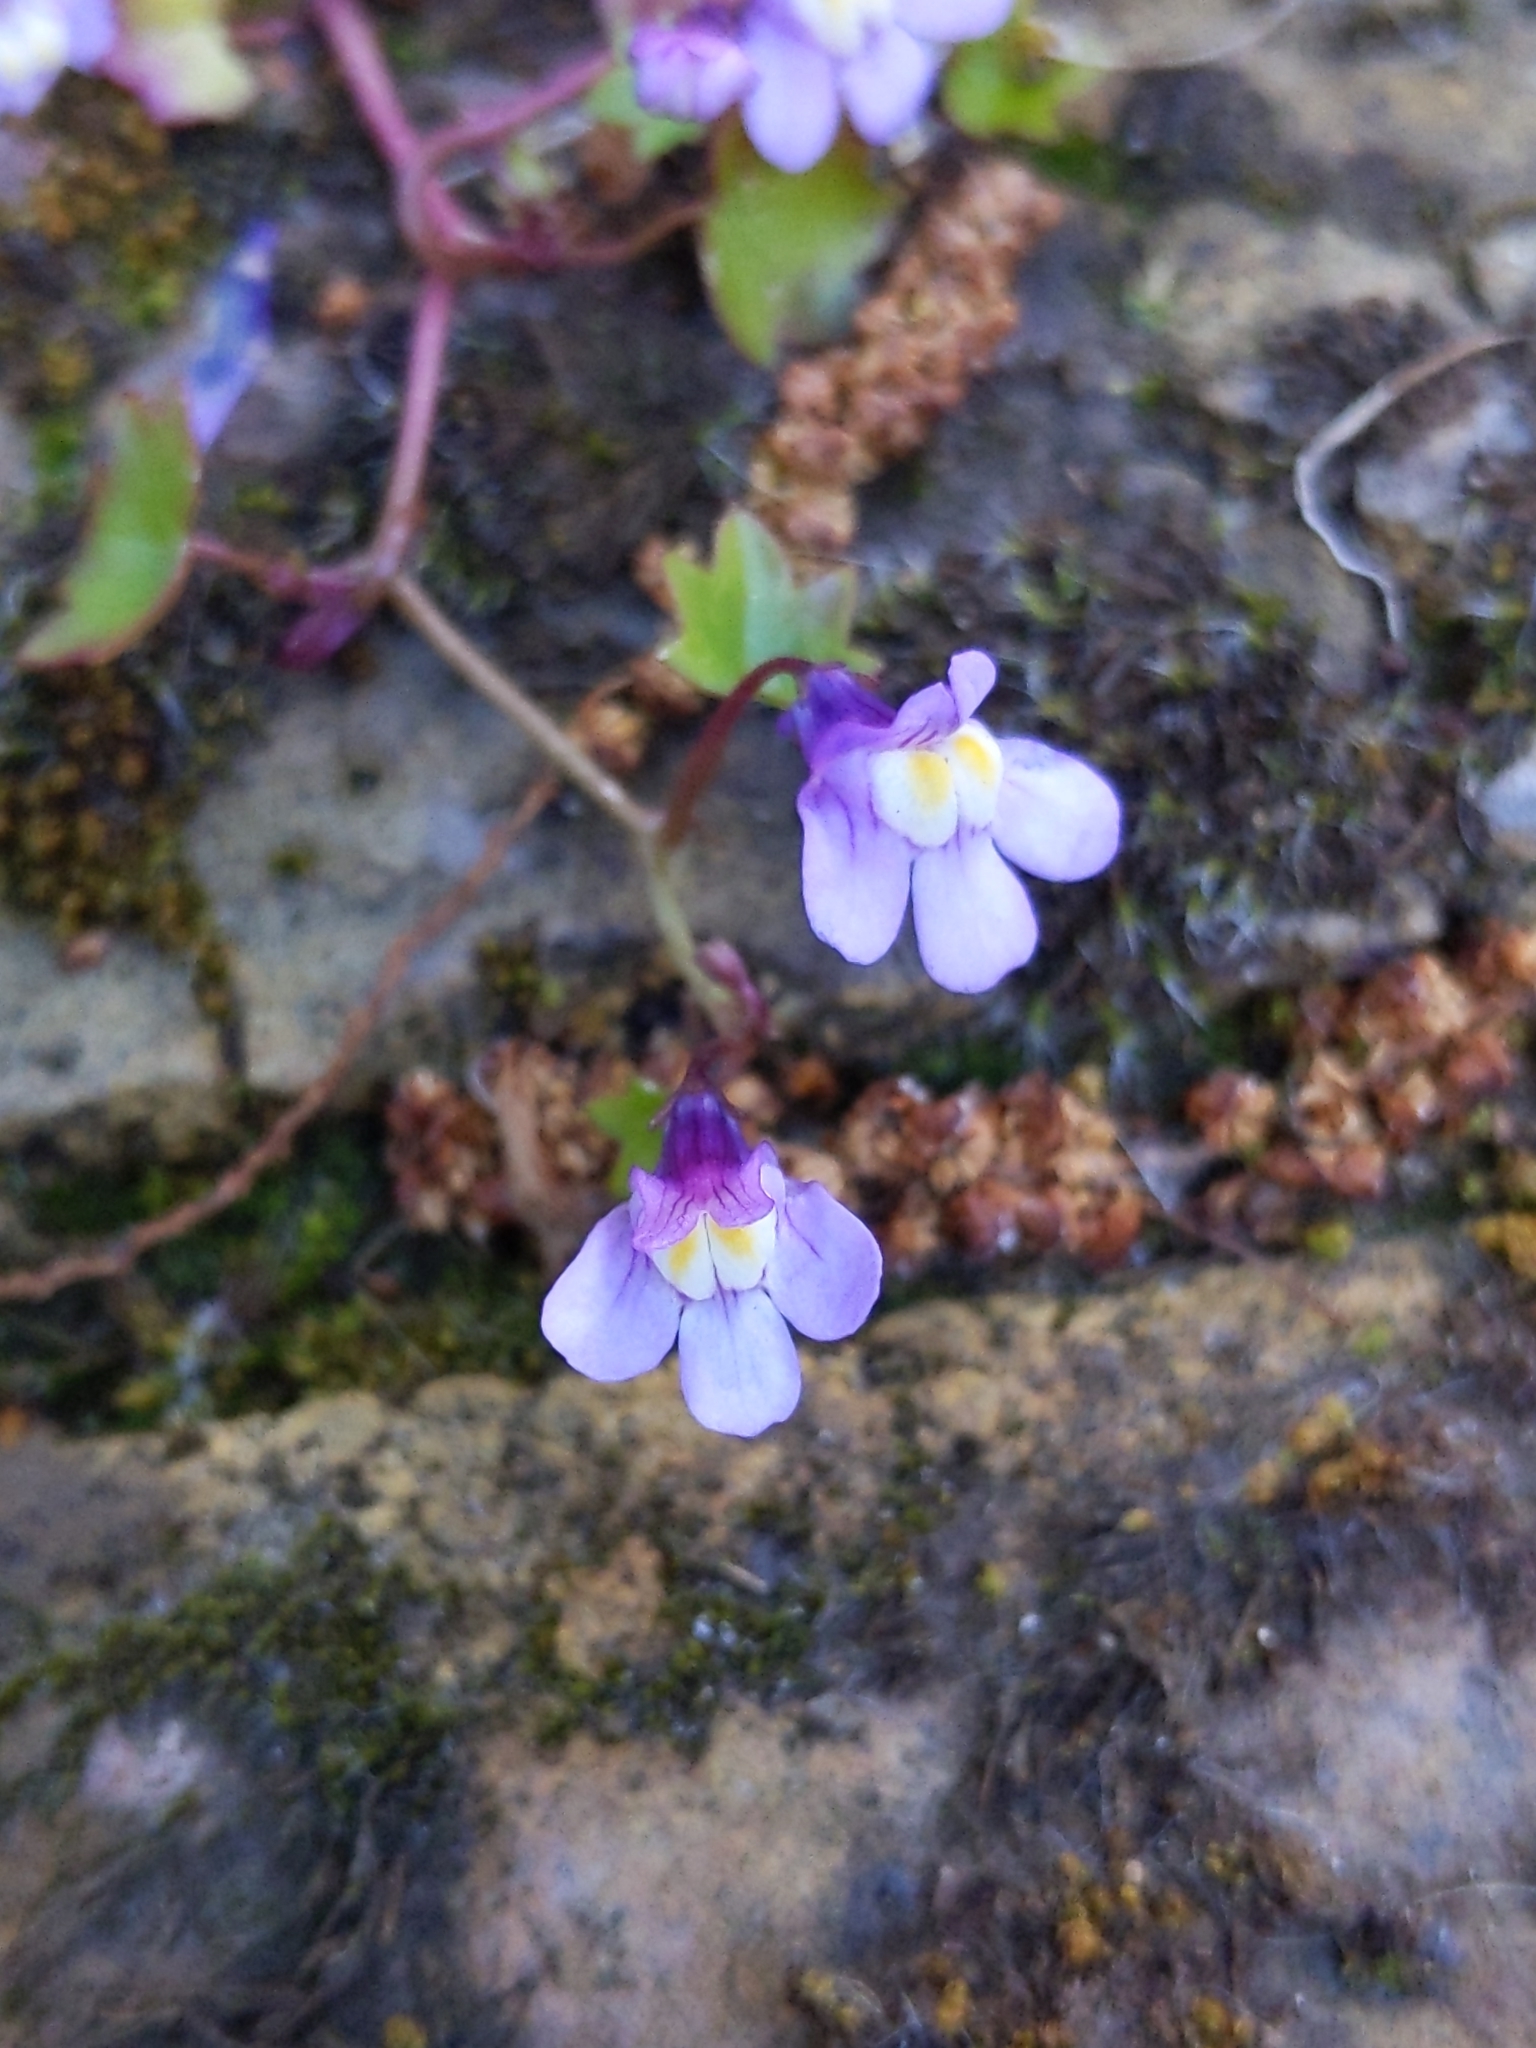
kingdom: Plantae
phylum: Tracheophyta
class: Magnoliopsida
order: Lamiales
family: Plantaginaceae
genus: Cymbalaria
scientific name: Cymbalaria muralis
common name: Ivy-leaved toadflax
